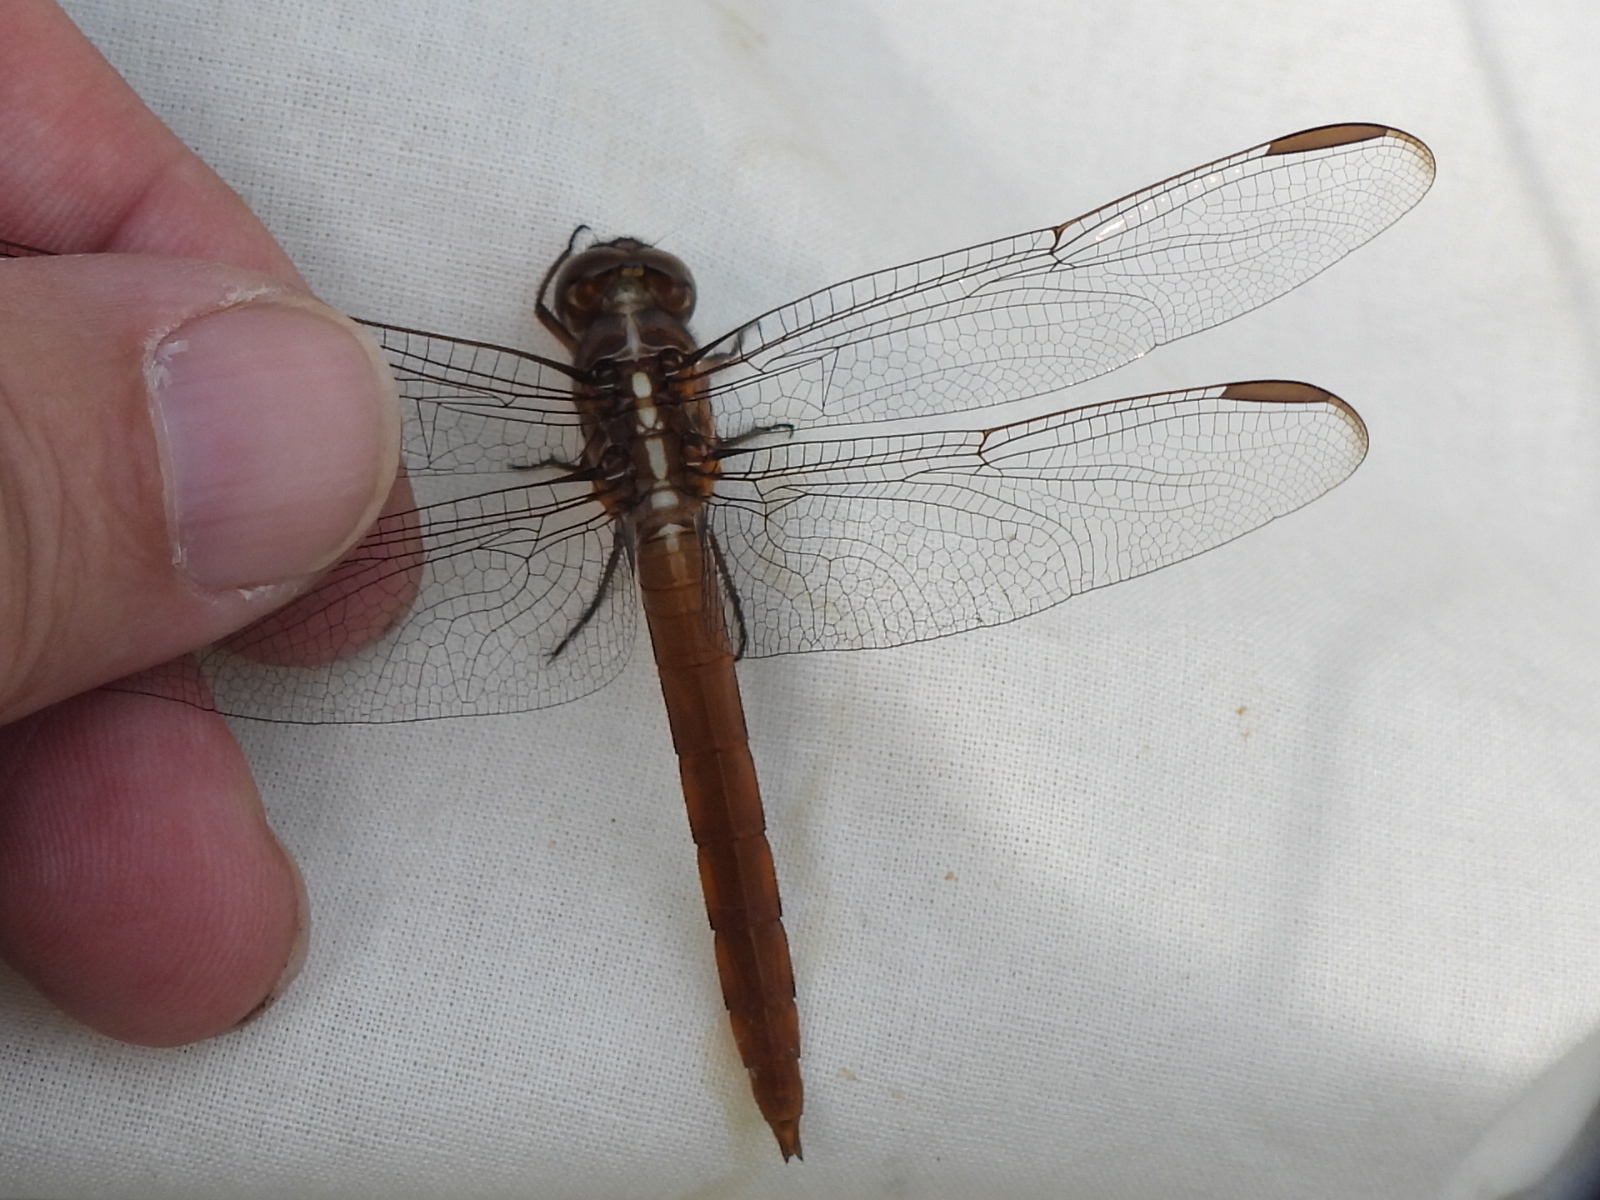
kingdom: Animalia
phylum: Arthropoda
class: Insecta
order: Odonata
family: Libellulidae
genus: Orthemis
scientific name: Orthemis ferruginea
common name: Roseate skimmer
